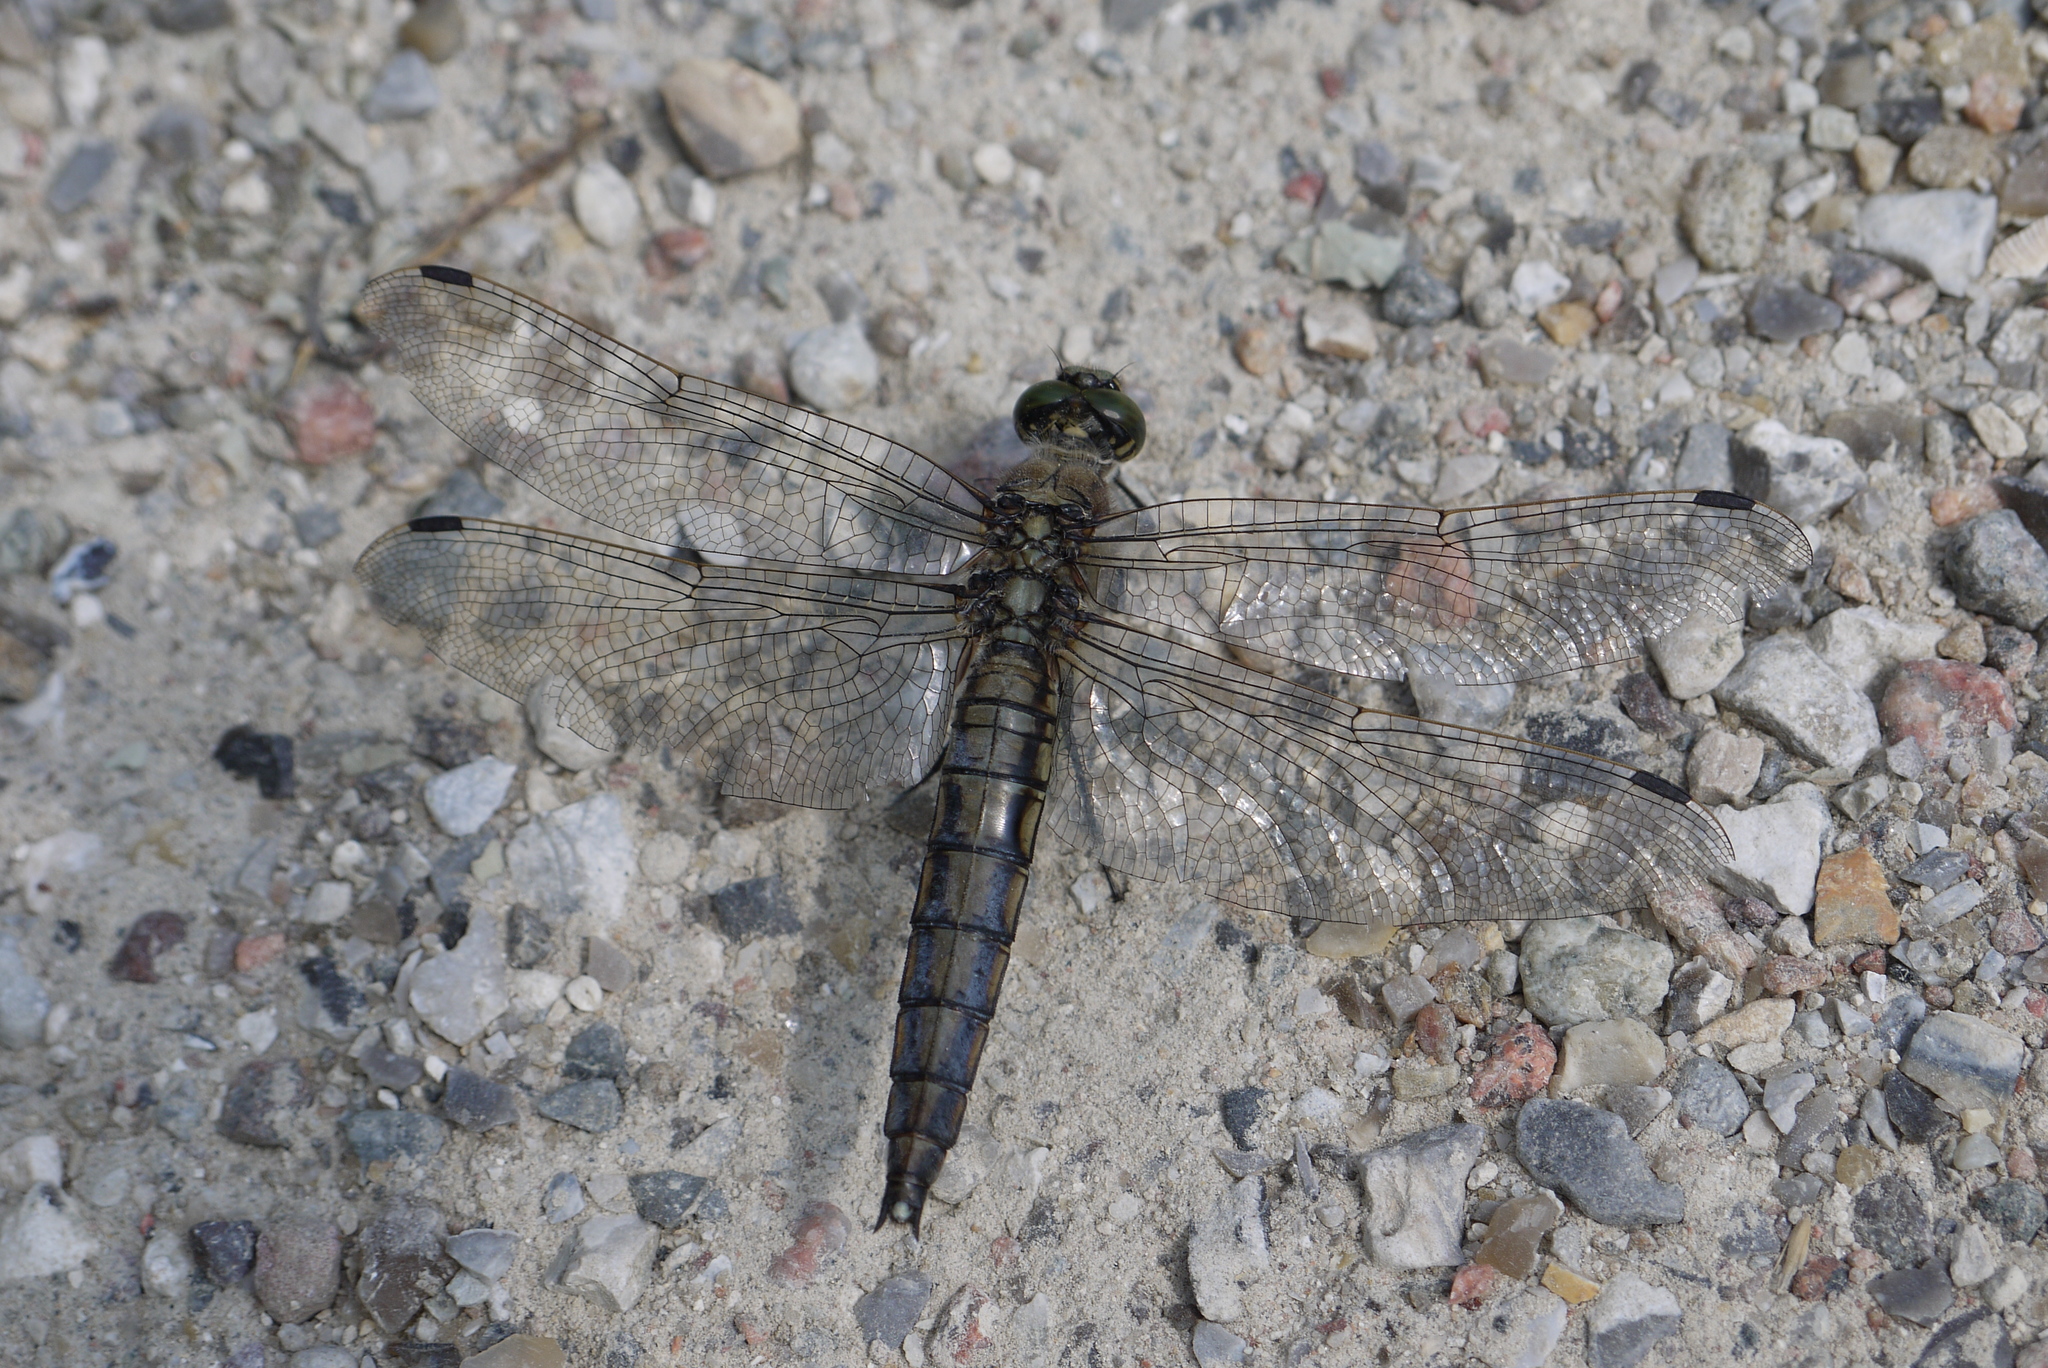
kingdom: Animalia
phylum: Arthropoda
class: Insecta
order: Odonata
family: Libellulidae
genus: Orthetrum
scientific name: Orthetrum cancellatum
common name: Black-tailed skimmer
